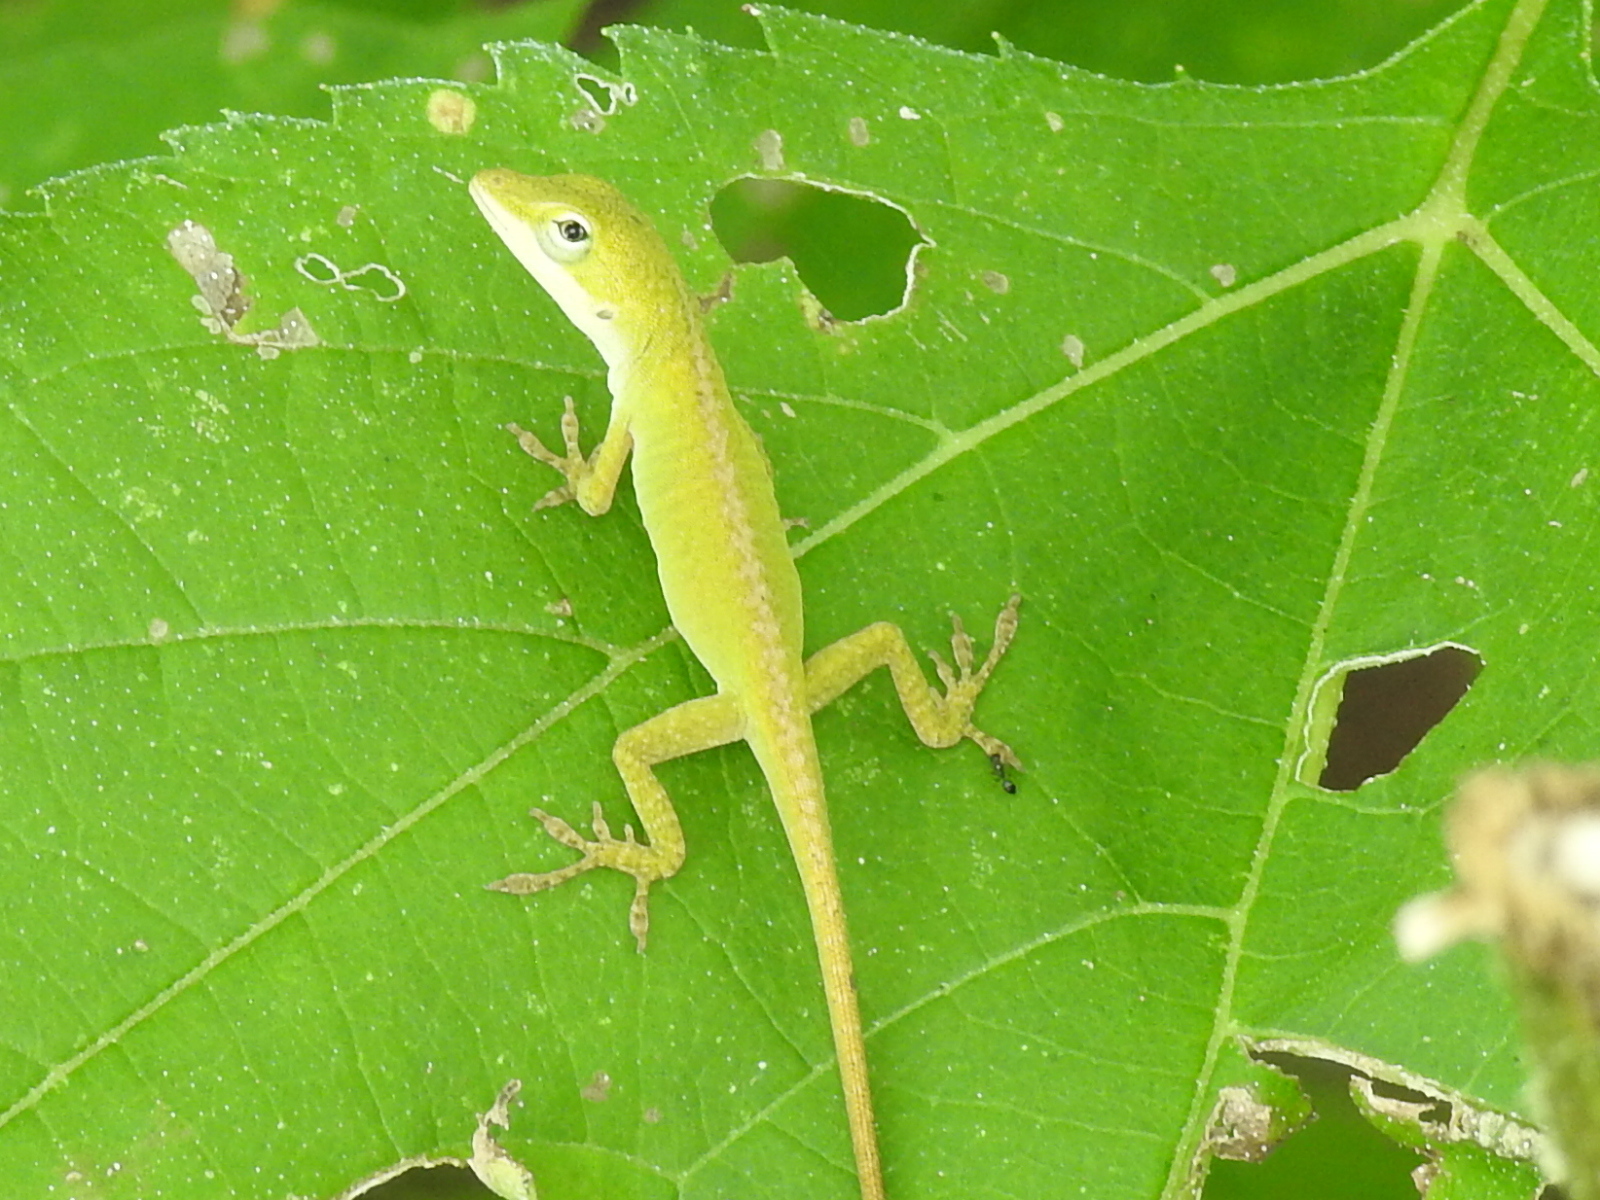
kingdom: Animalia
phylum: Chordata
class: Squamata
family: Dactyloidae
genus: Anolis
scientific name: Anolis carolinensis
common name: Green anole
